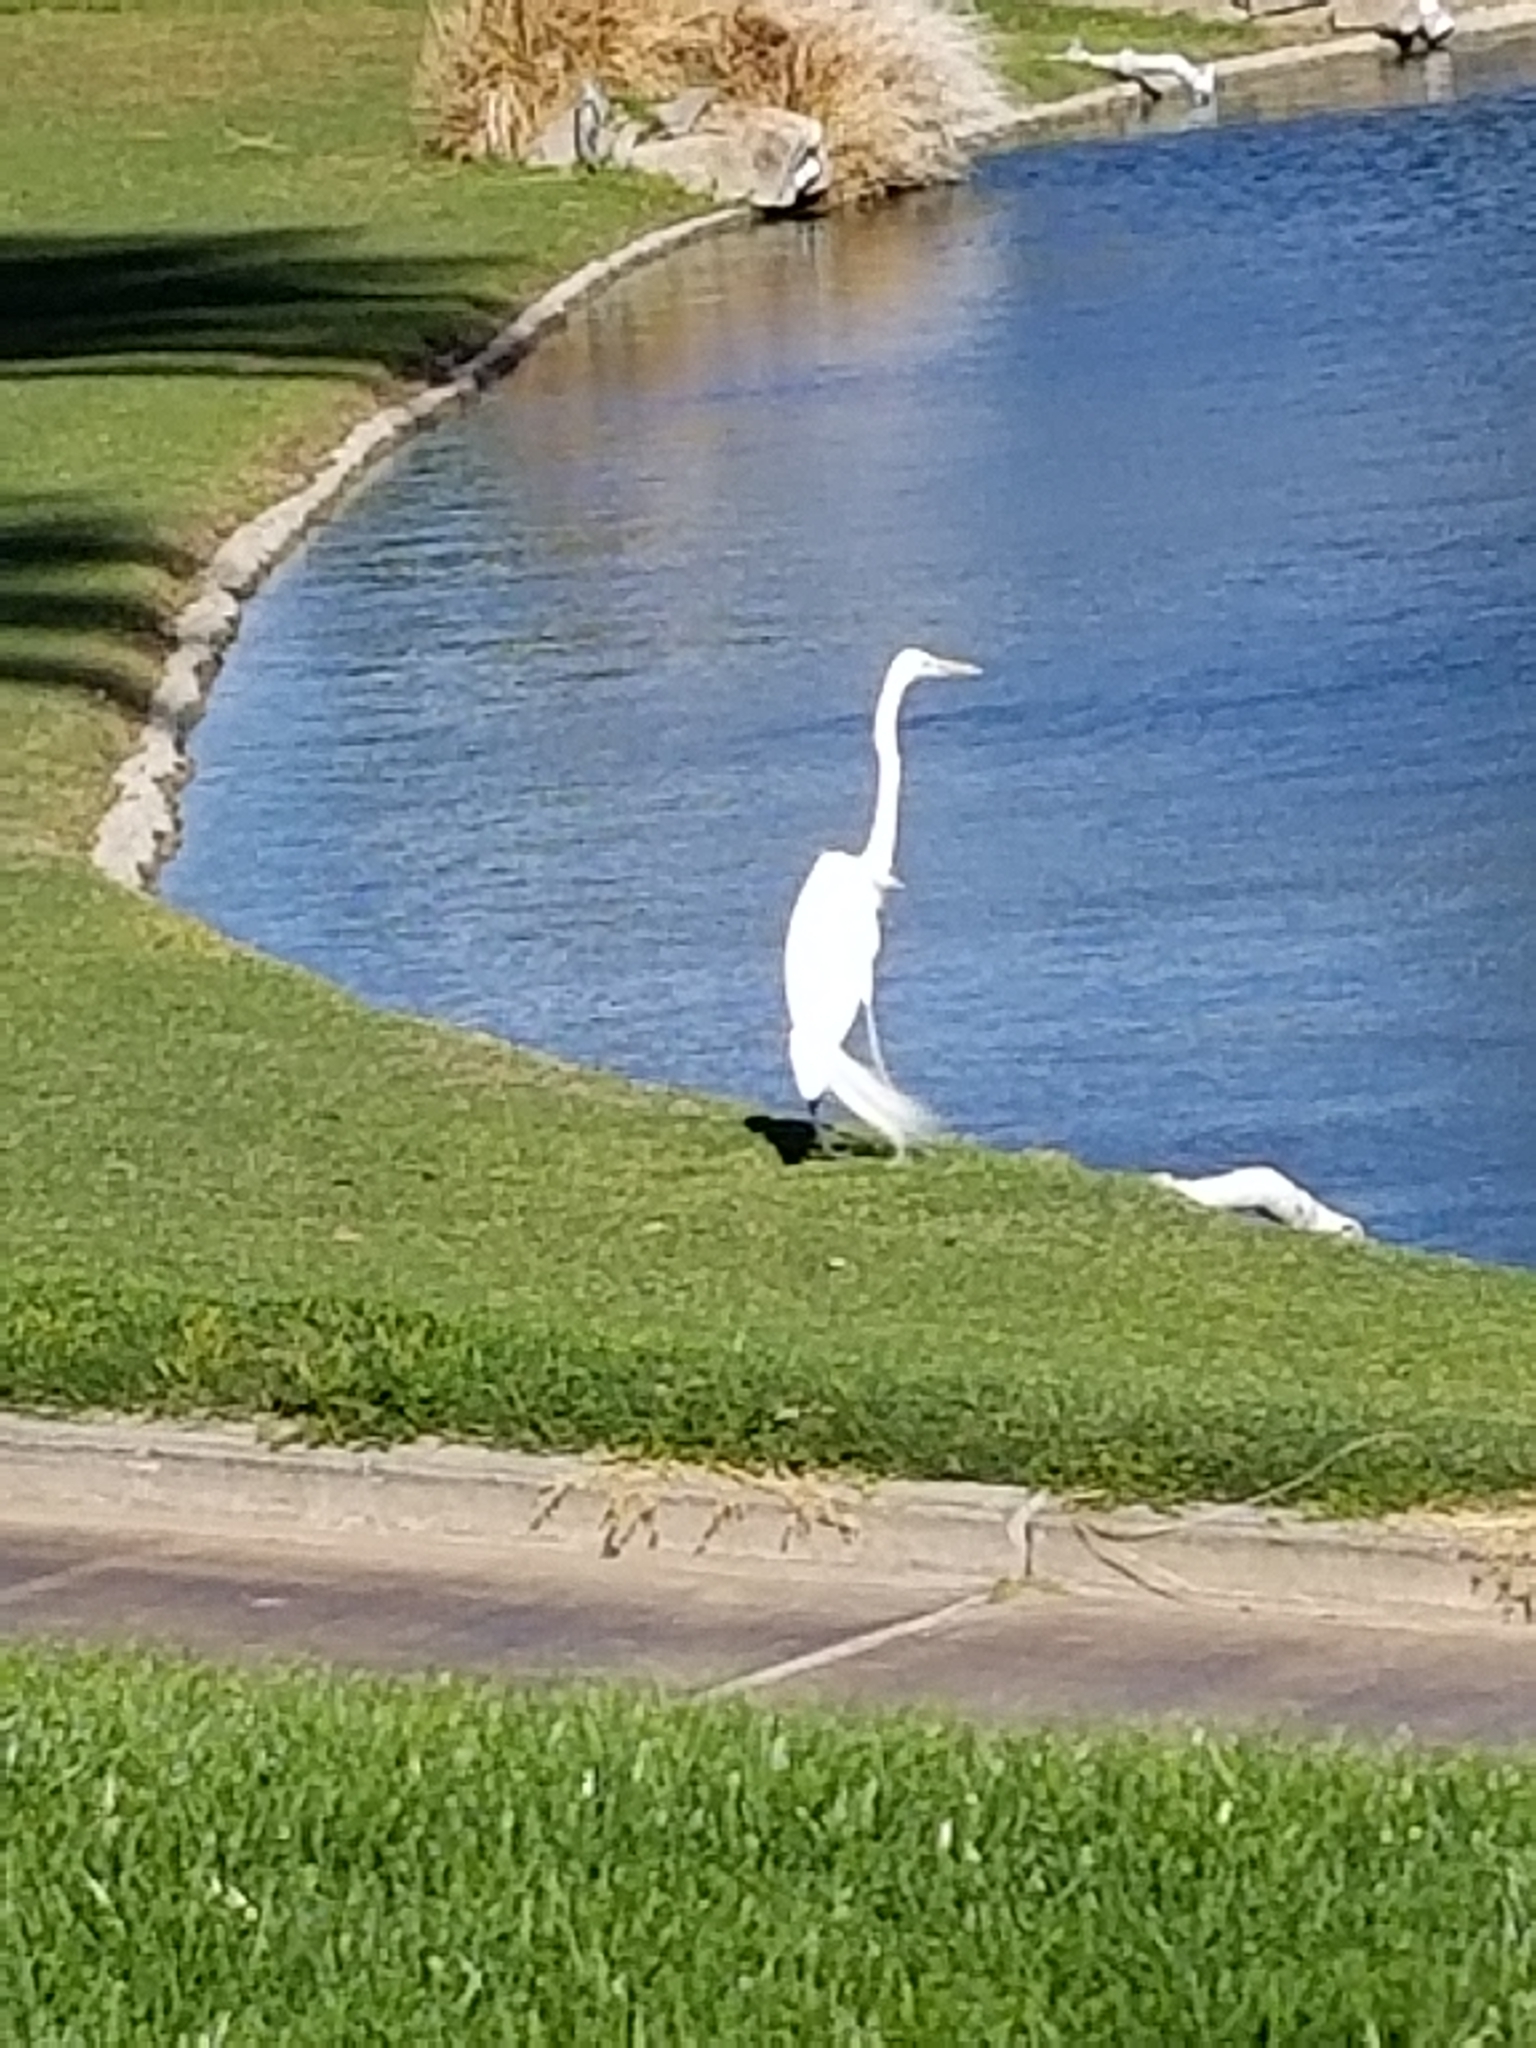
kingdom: Animalia
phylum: Chordata
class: Aves
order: Pelecaniformes
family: Ardeidae
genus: Ardea
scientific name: Ardea alba
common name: Great egret
